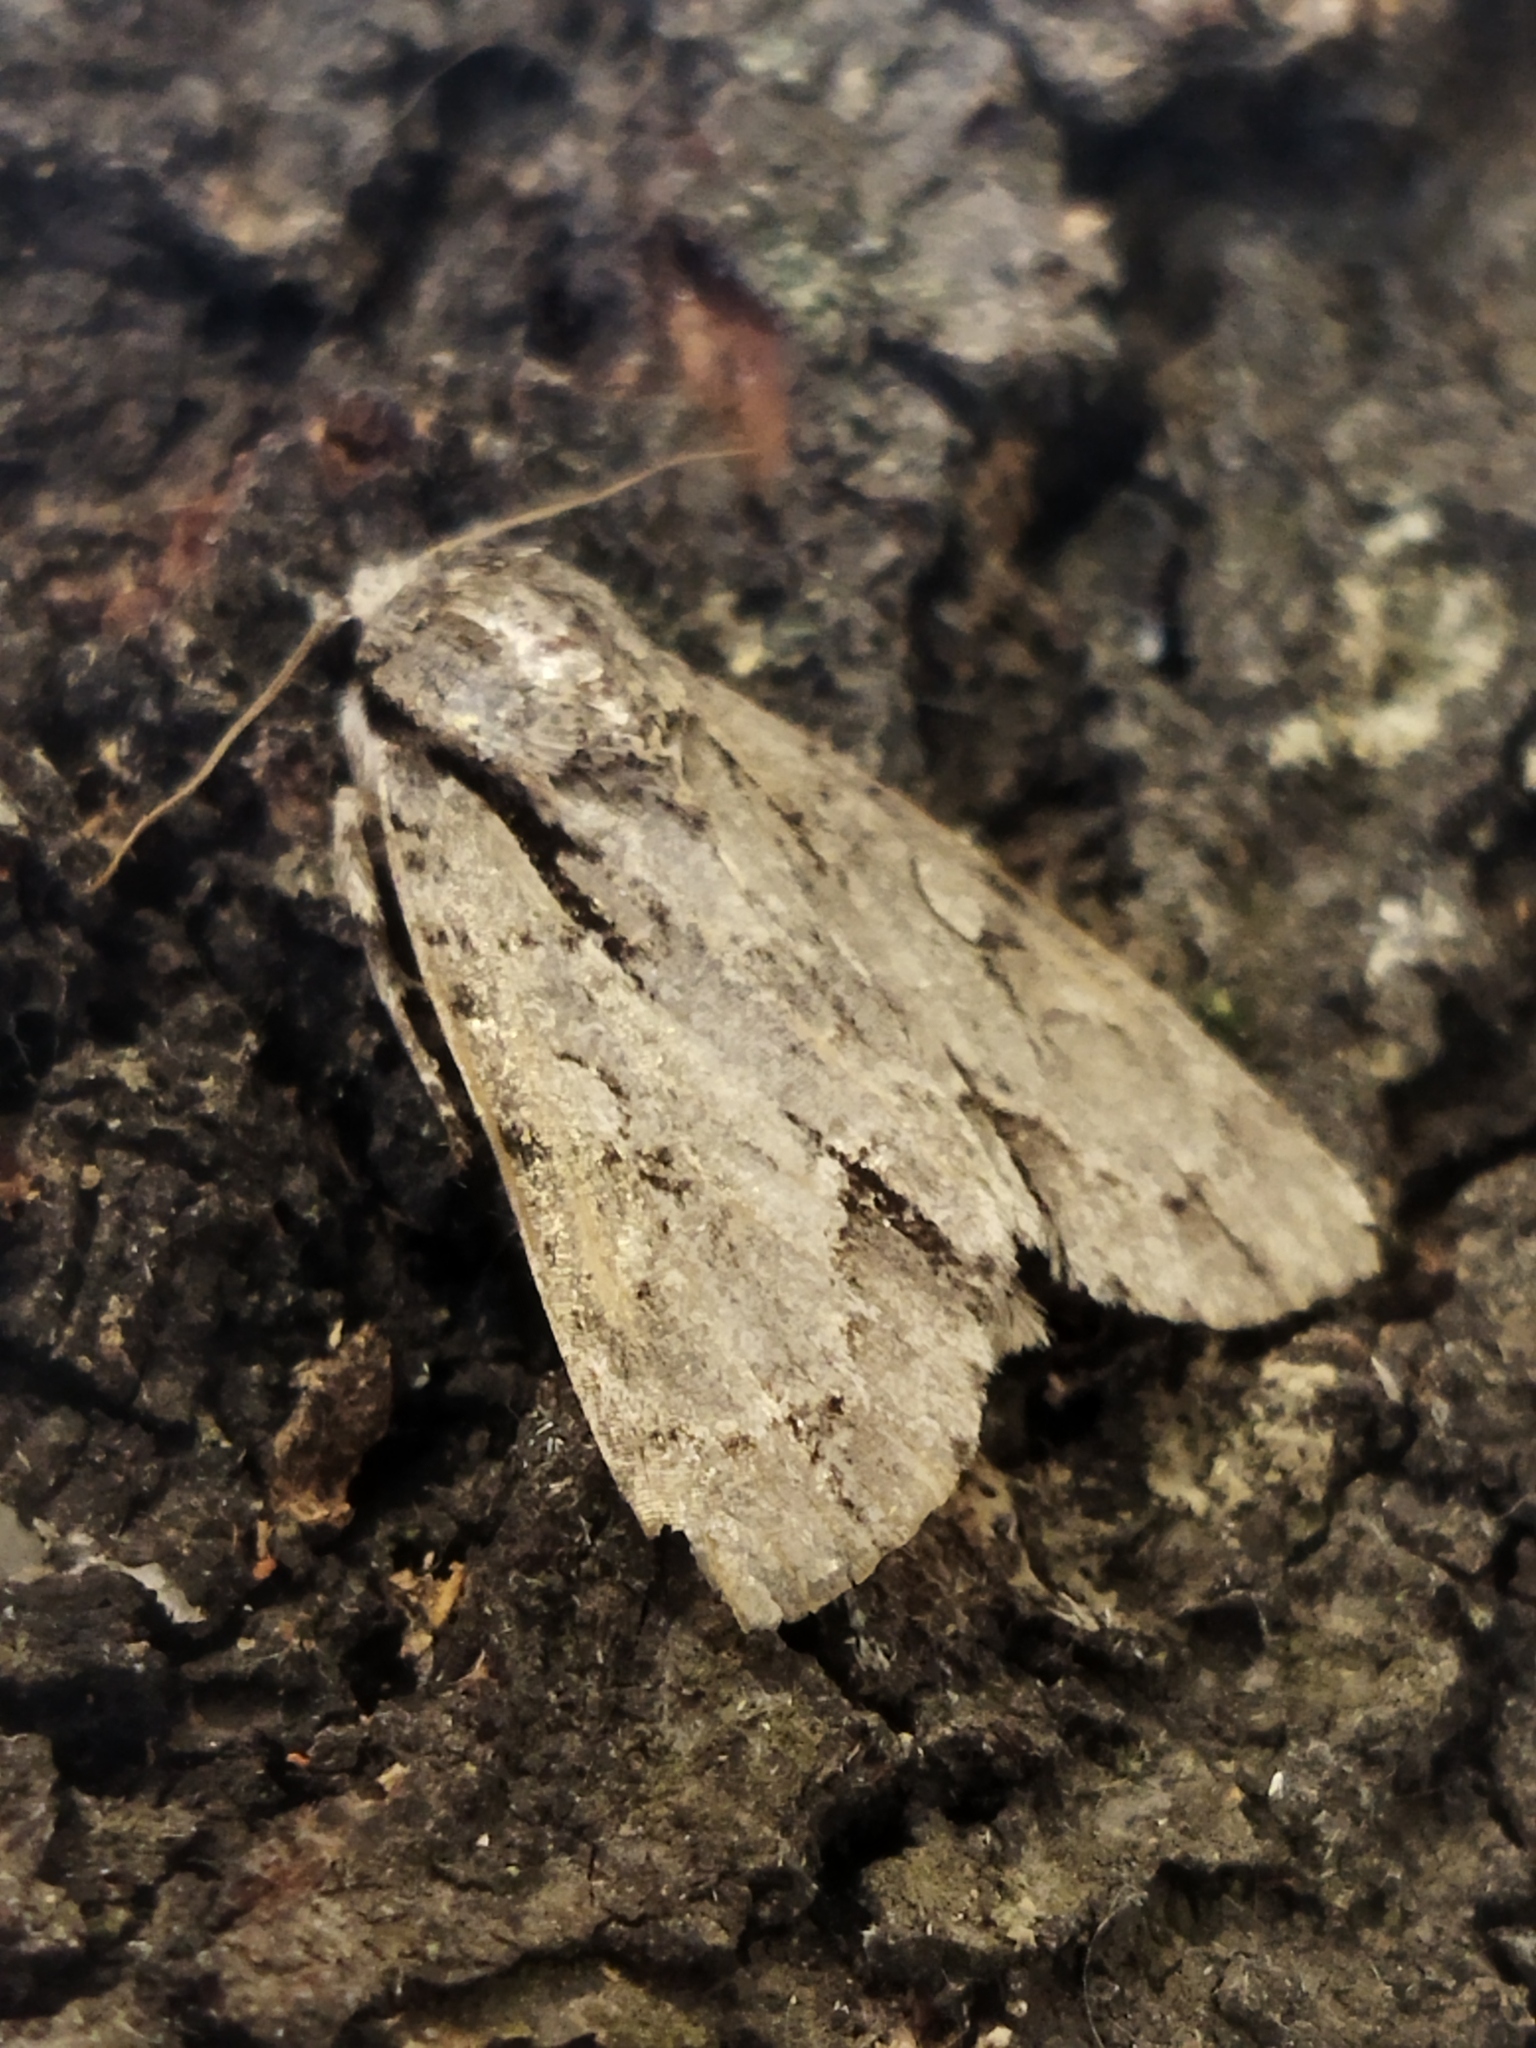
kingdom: Animalia
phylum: Arthropoda
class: Insecta
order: Lepidoptera
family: Noctuidae
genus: Acronicta
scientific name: Acronicta
